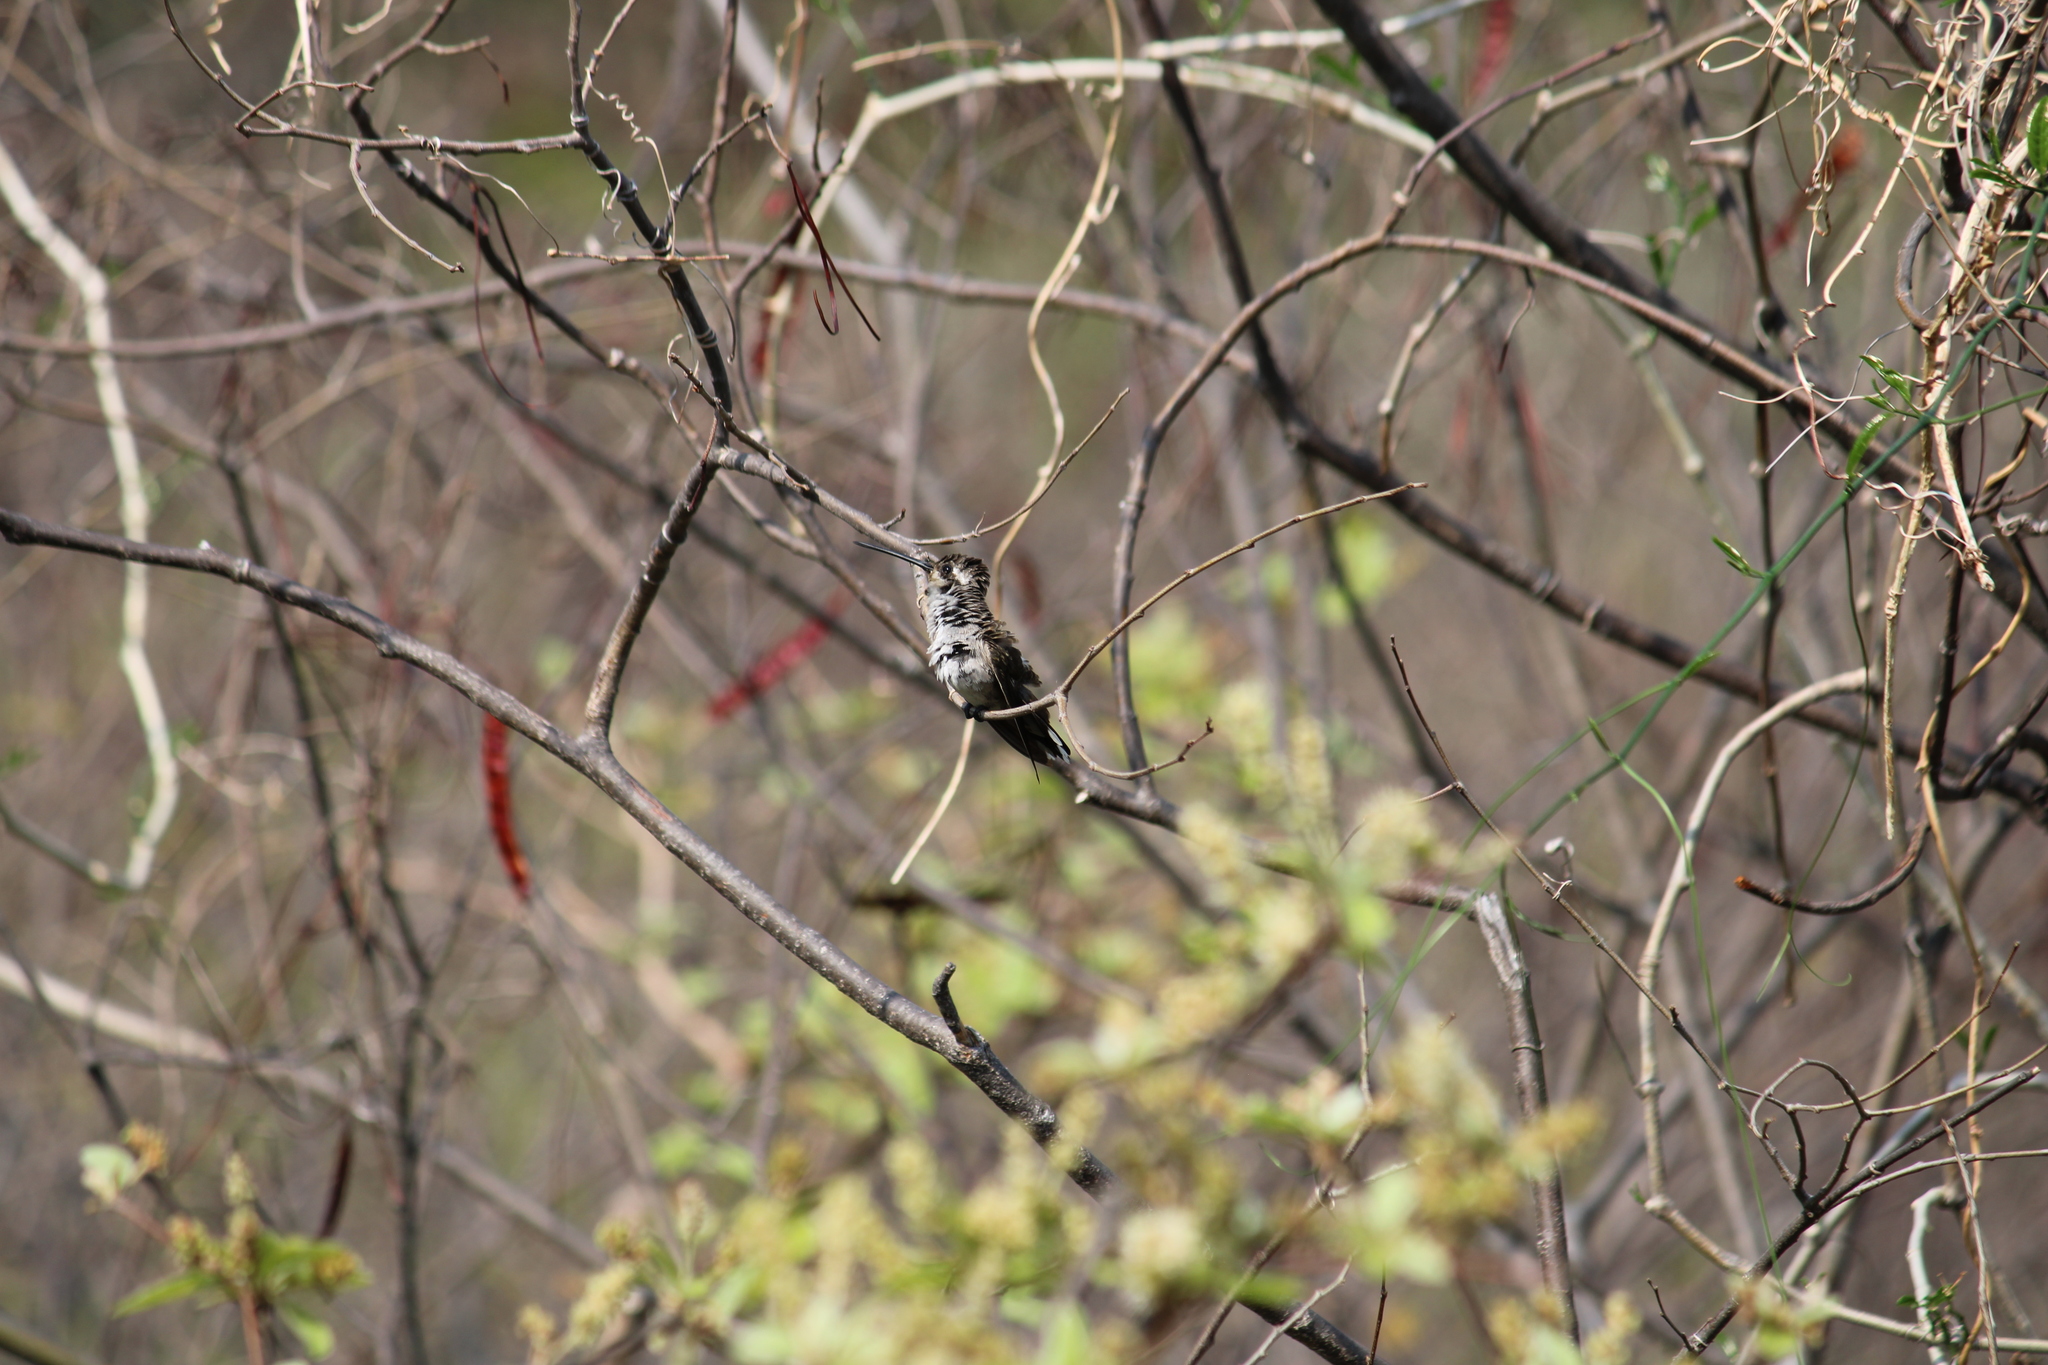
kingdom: Animalia
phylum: Chordata
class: Aves
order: Apodiformes
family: Trochilidae
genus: Heliomaster
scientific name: Heliomaster constantii
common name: Plain-capped starthroat
